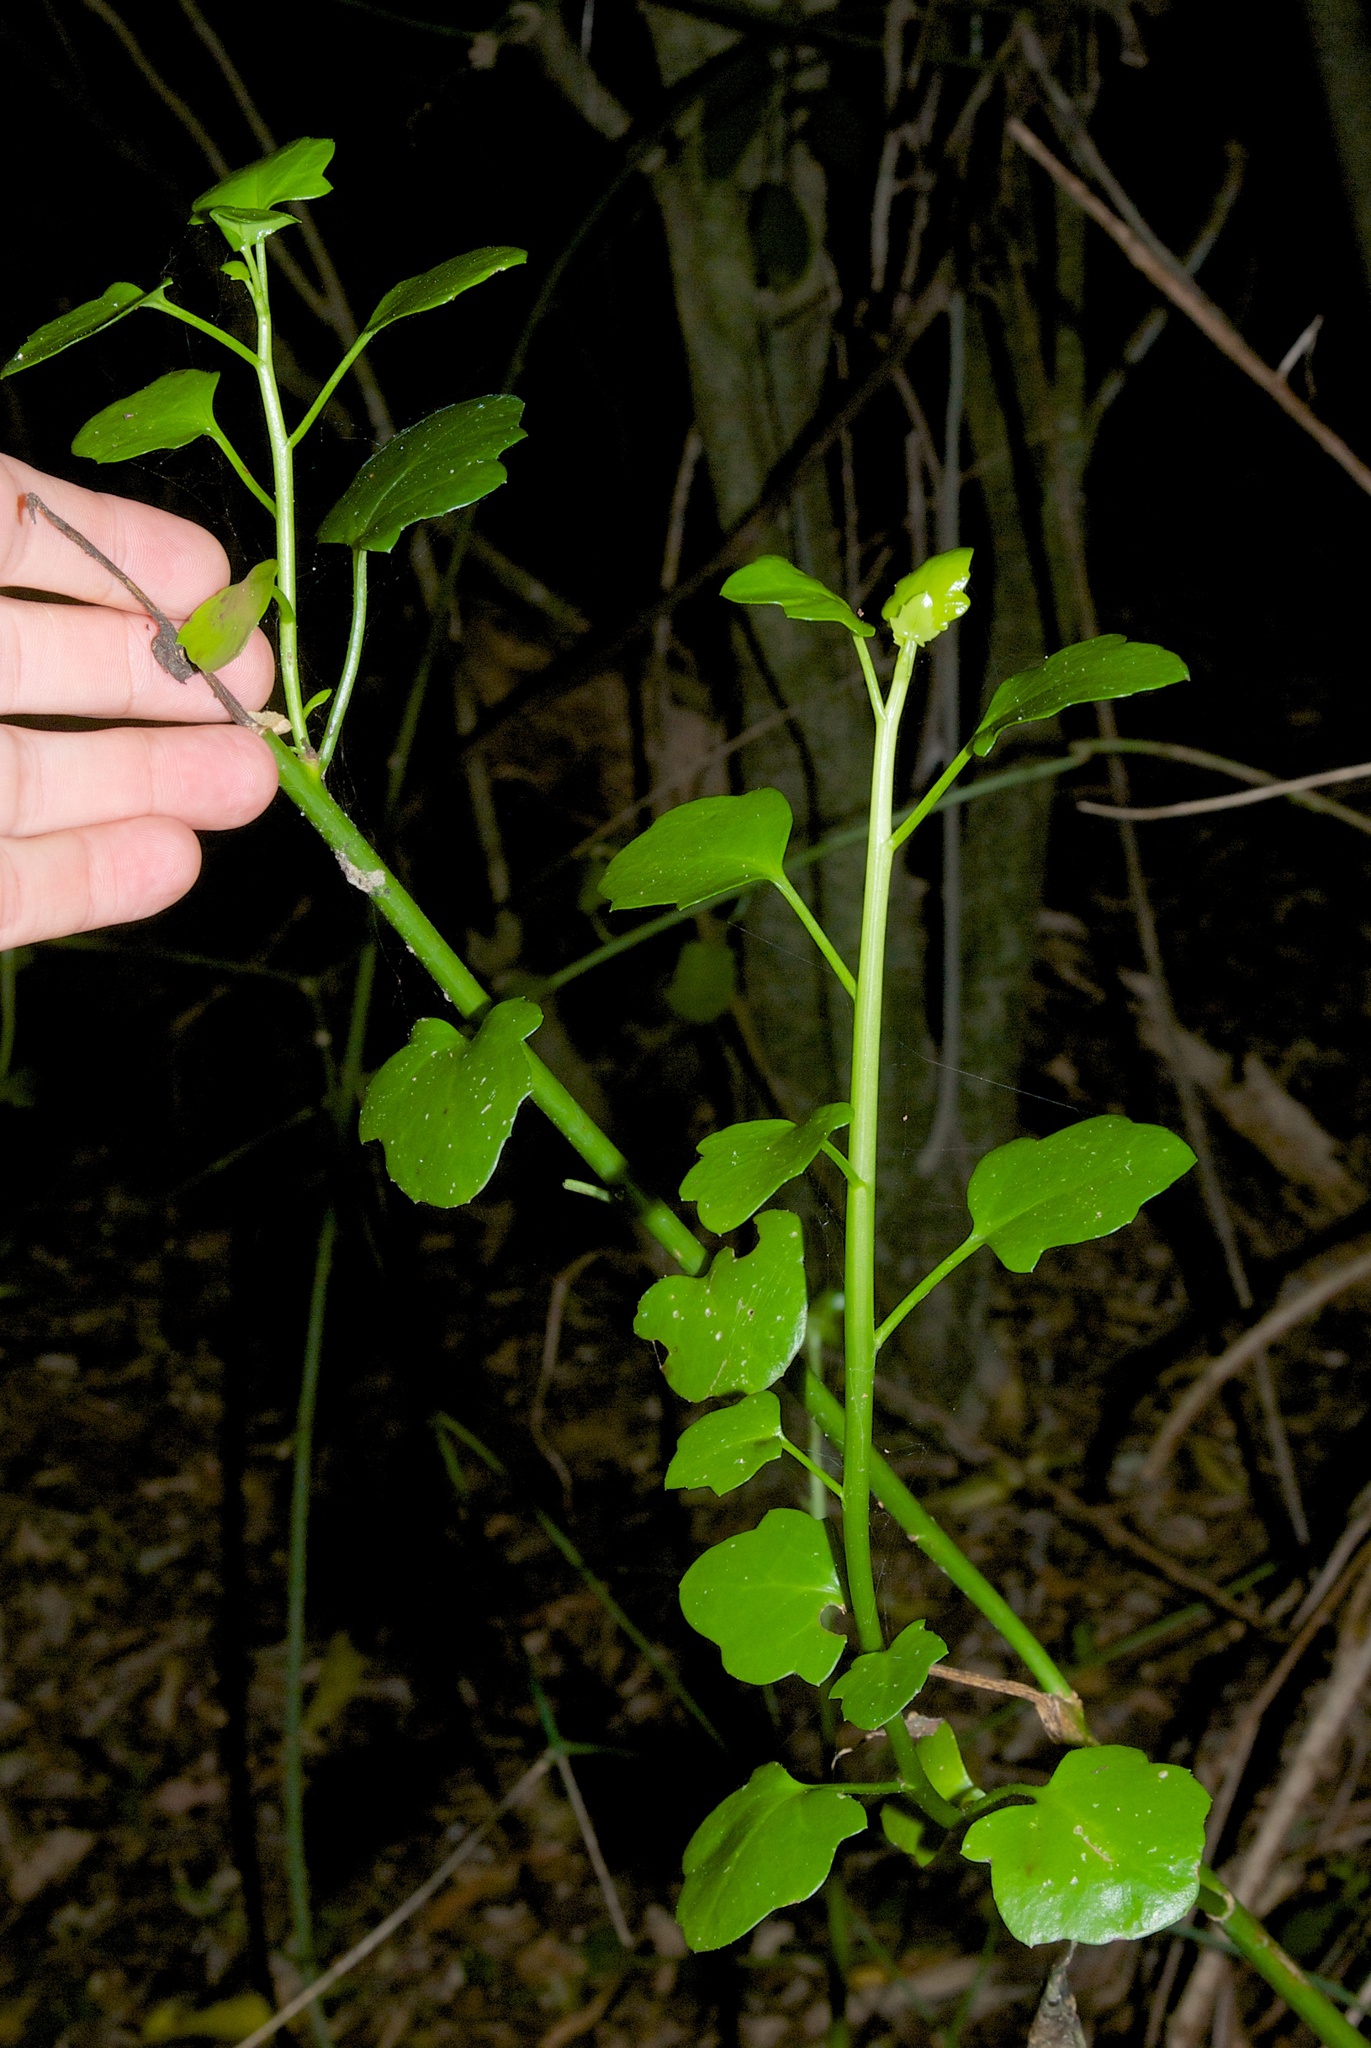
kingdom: Plantae
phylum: Tracheophyta
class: Magnoliopsida
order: Asterales
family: Asteraceae
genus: Senecio
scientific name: Senecio angulatus
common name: Climbing groundsel
